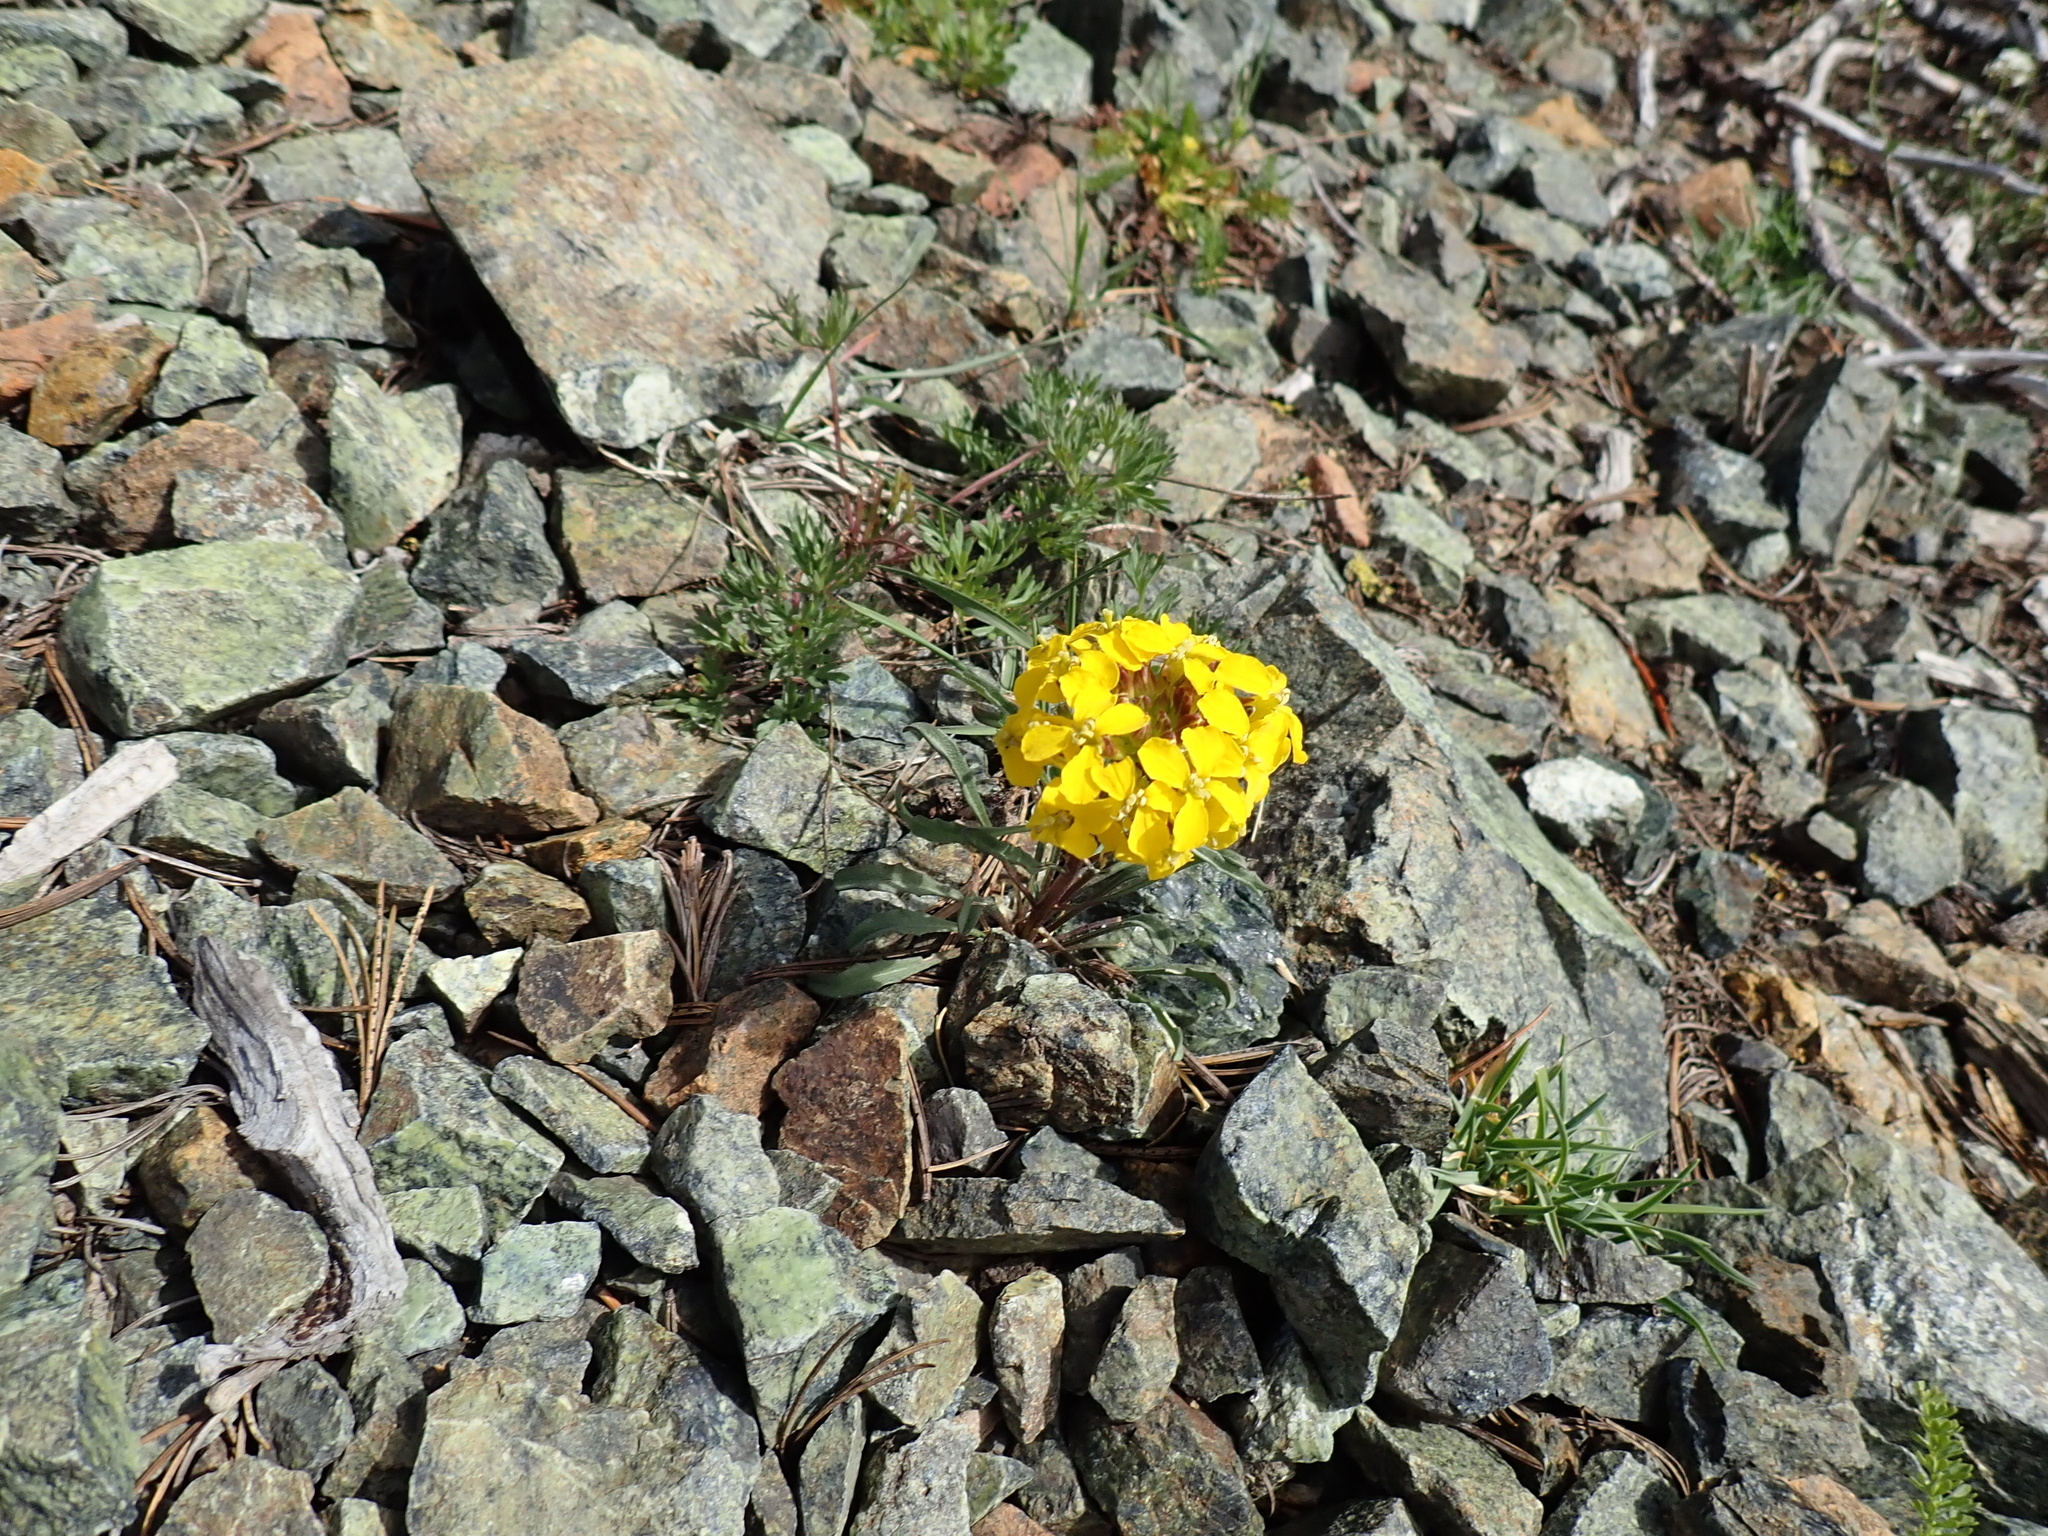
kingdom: Plantae
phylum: Tracheophyta
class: Magnoliopsida
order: Brassicales
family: Brassicaceae
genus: Erysimum
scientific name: Erysimum capitatum
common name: Western wallflower
